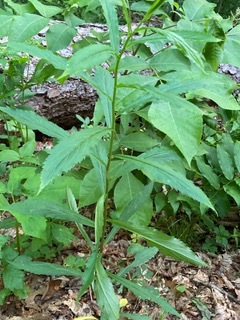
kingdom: Plantae
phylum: Tracheophyta
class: Magnoliopsida
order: Asterales
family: Asteraceae
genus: Verbesina
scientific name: Verbesina alternifolia
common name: Wingstem
